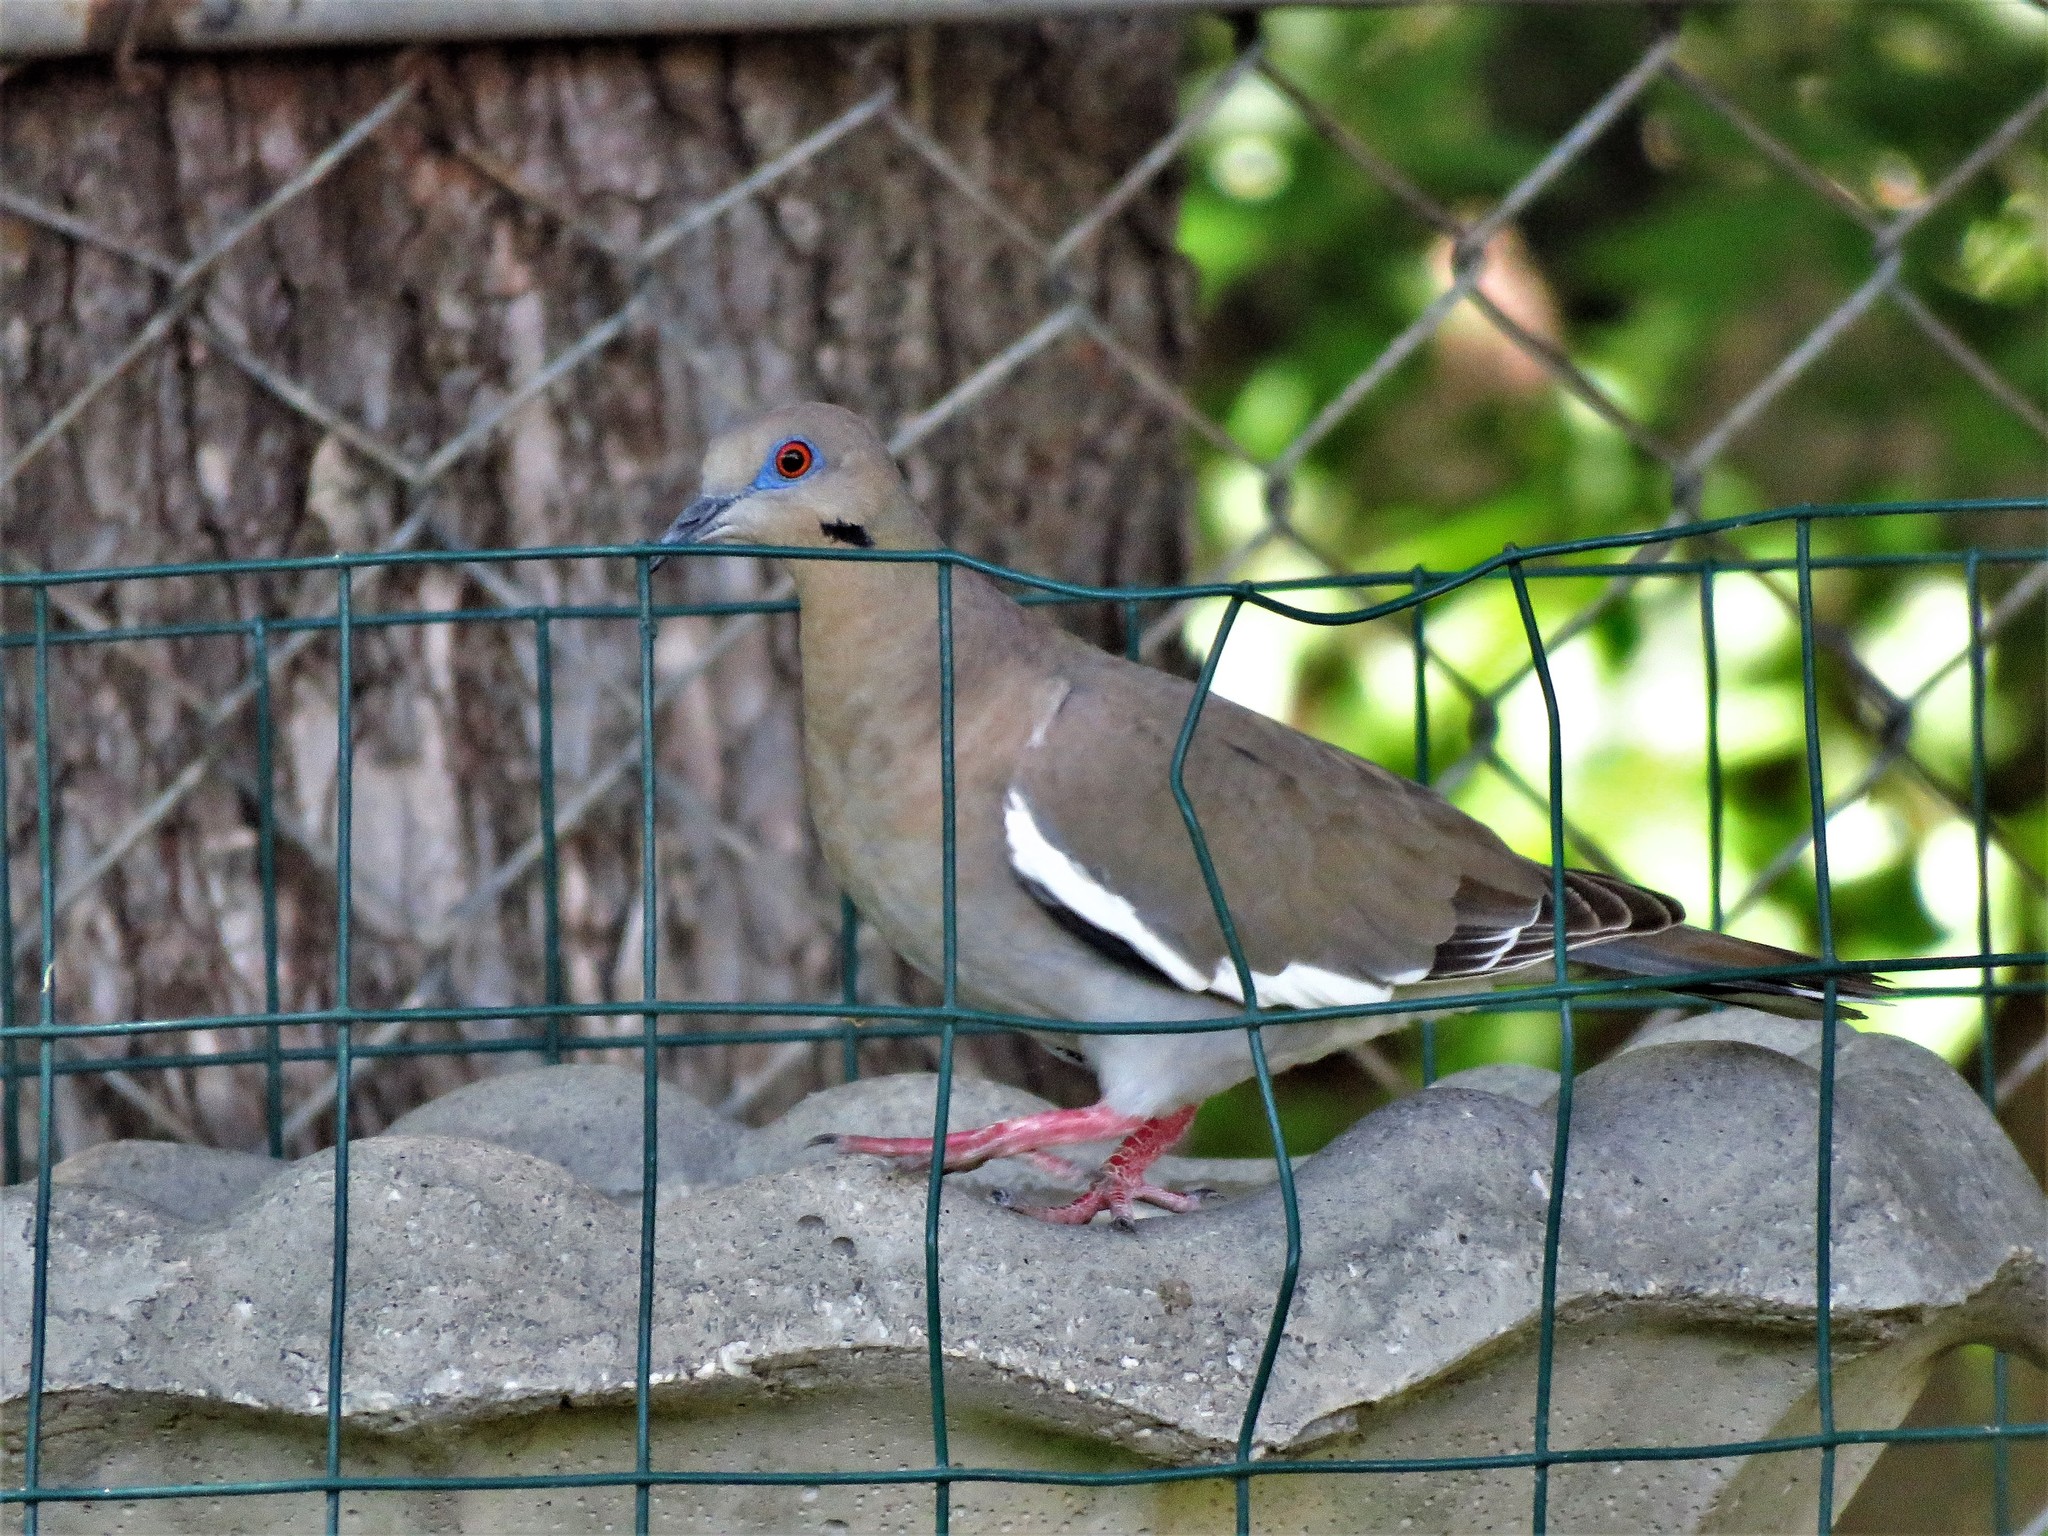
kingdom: Animalia
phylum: Chordata
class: Aves
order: Columbiformes
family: Columbidae
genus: Zenaida
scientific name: Zenaida asiatica
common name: White-winged dove
